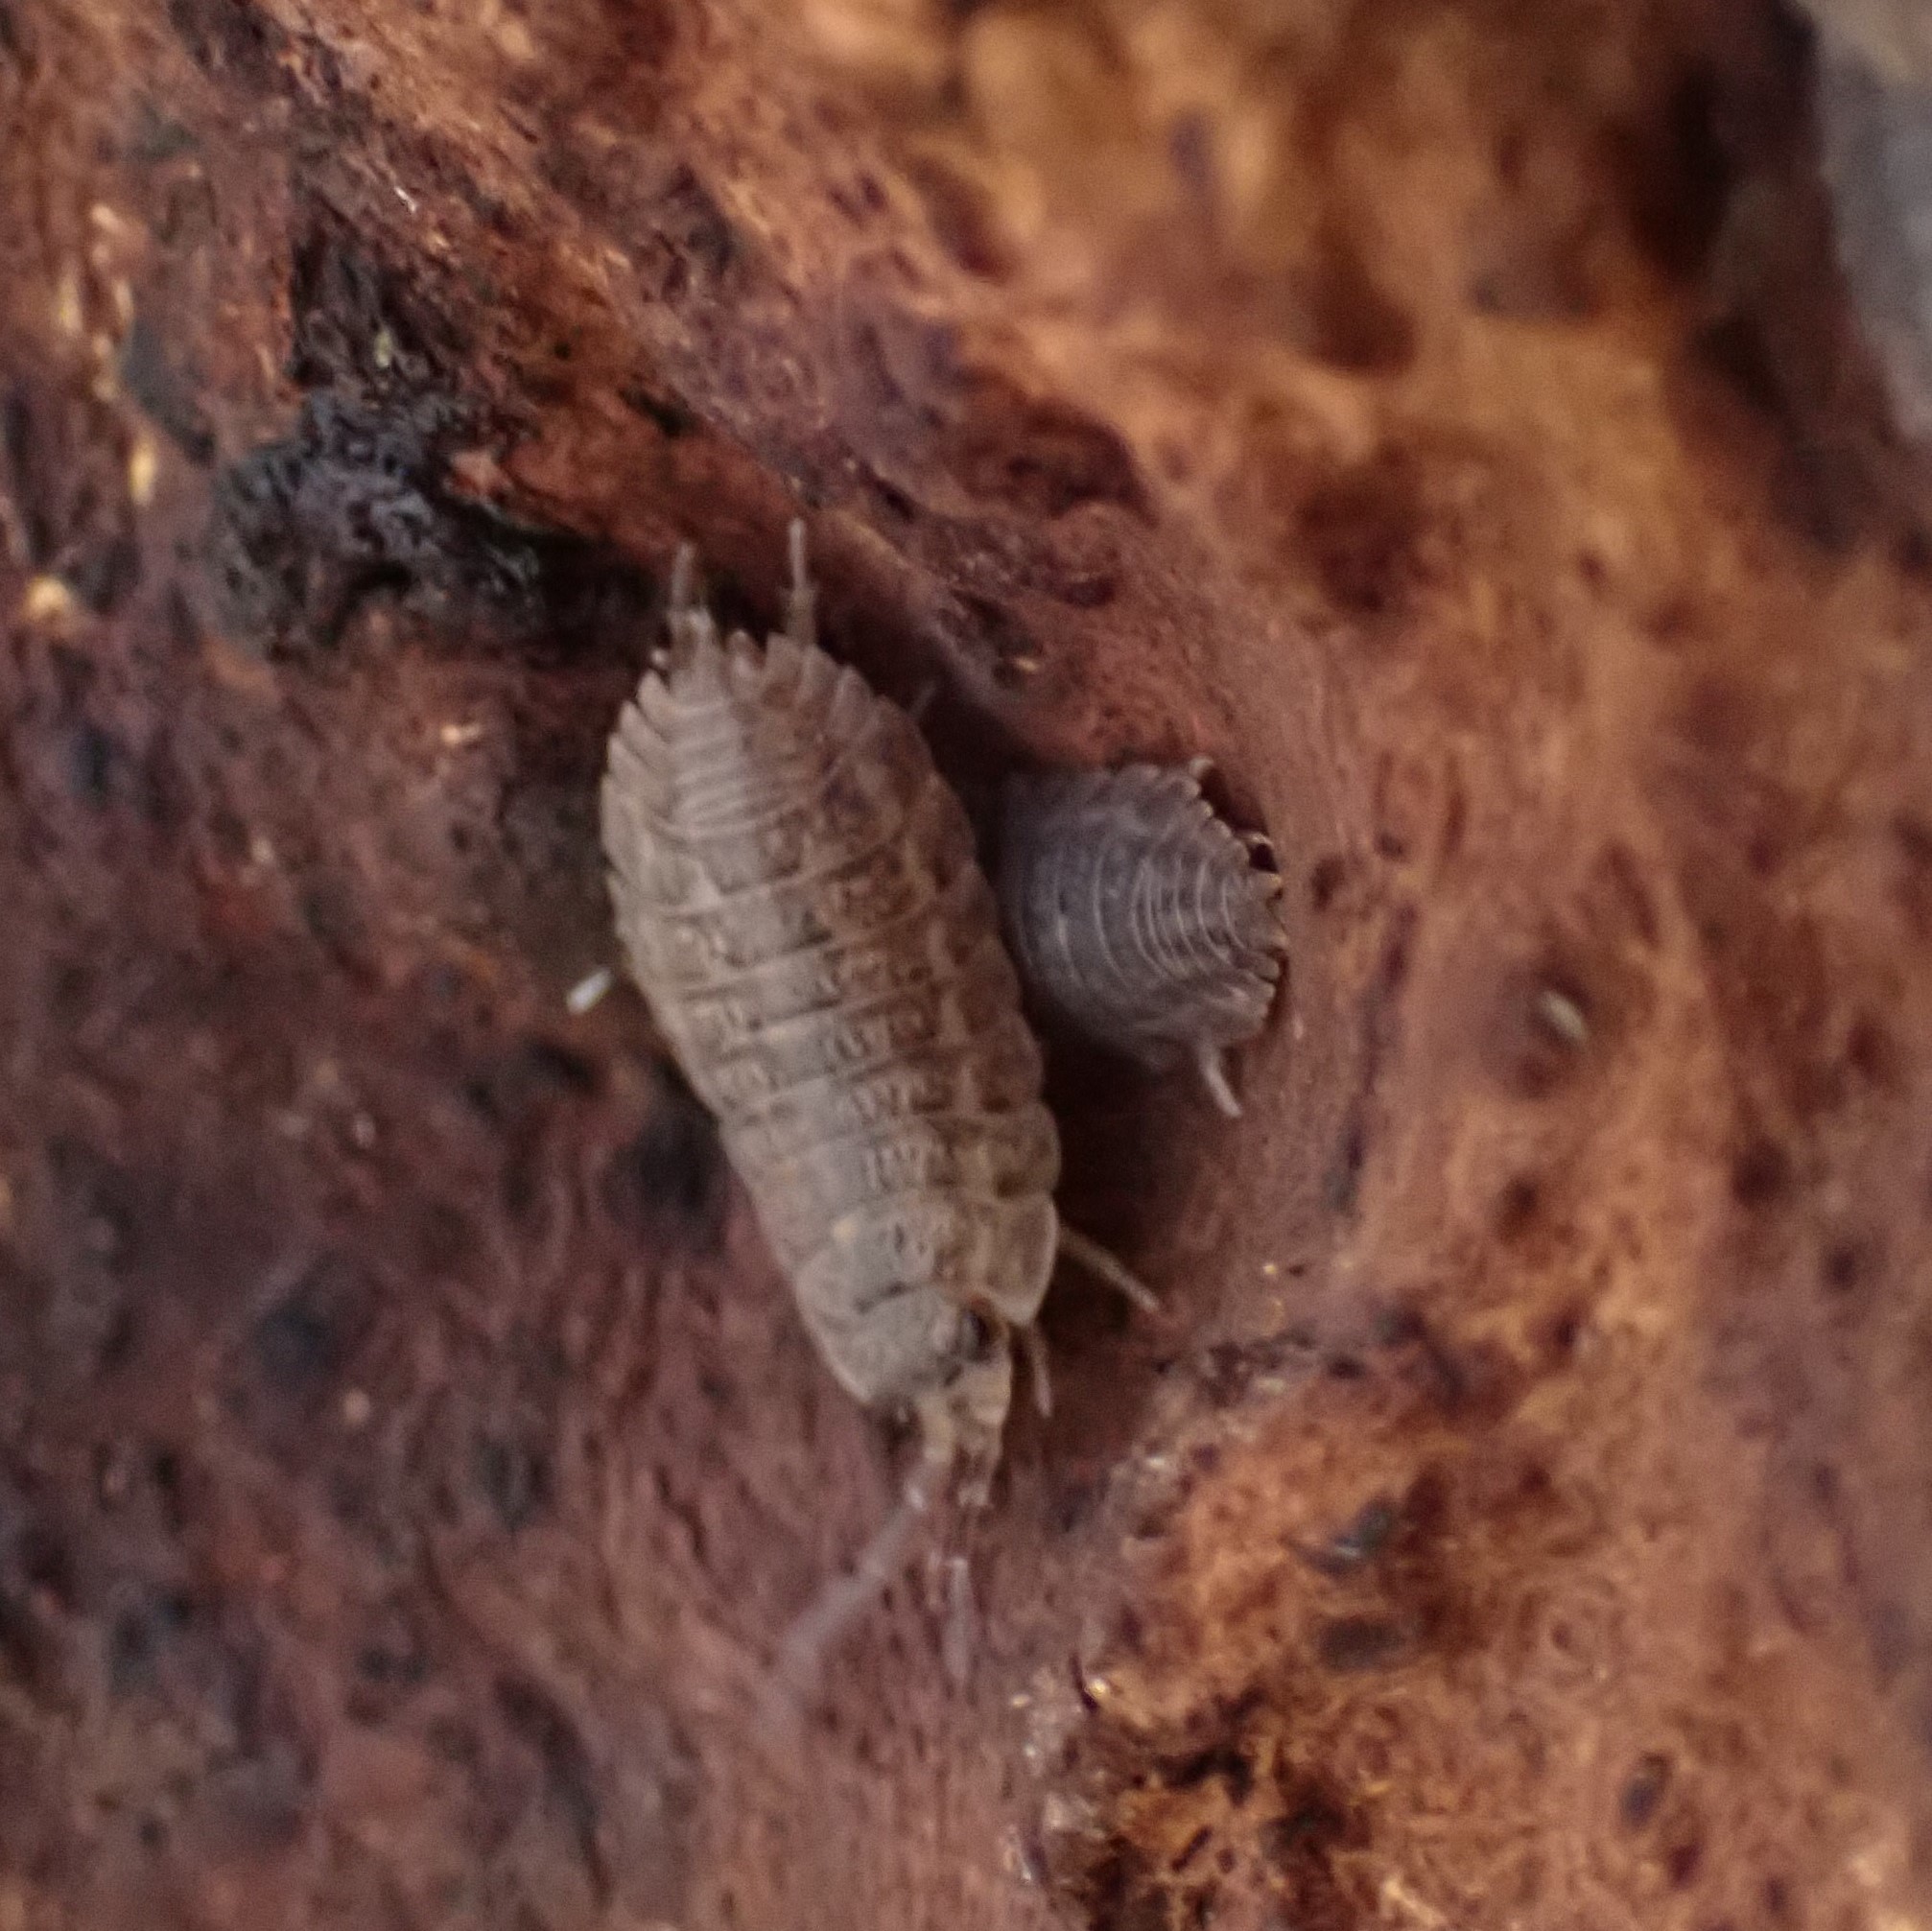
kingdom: Animalia
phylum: Arthropoda
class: Malacostraca
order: Isopoda
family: Trachelipodidae
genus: Trachelipus
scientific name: Trachelipus rathkii
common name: Isopod
